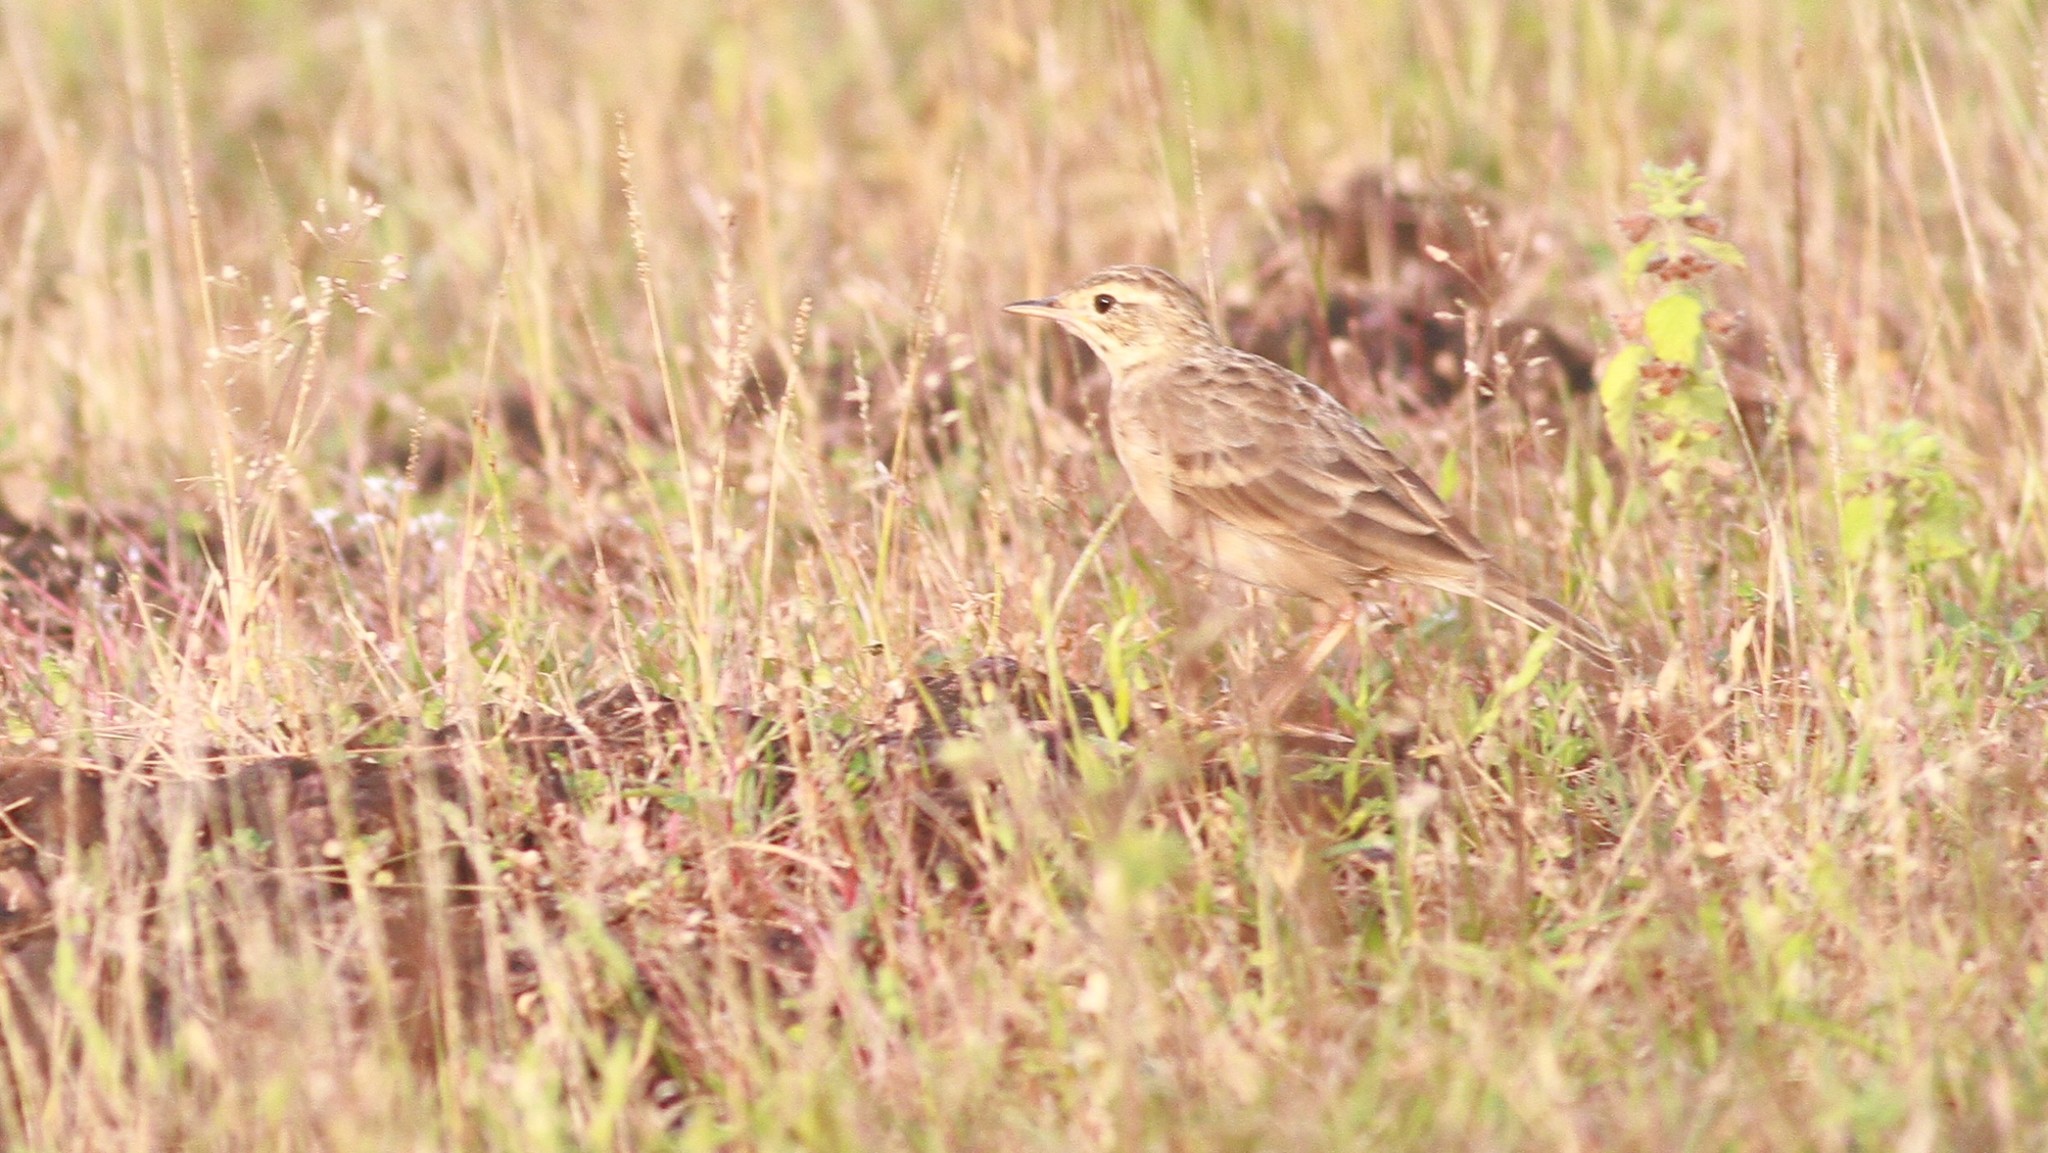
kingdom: Animalia
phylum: Chordata
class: Aves
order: Passeriformes
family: Motacillidae
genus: Anthus
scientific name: Anthus rufulus
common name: Paddyfield pipit
